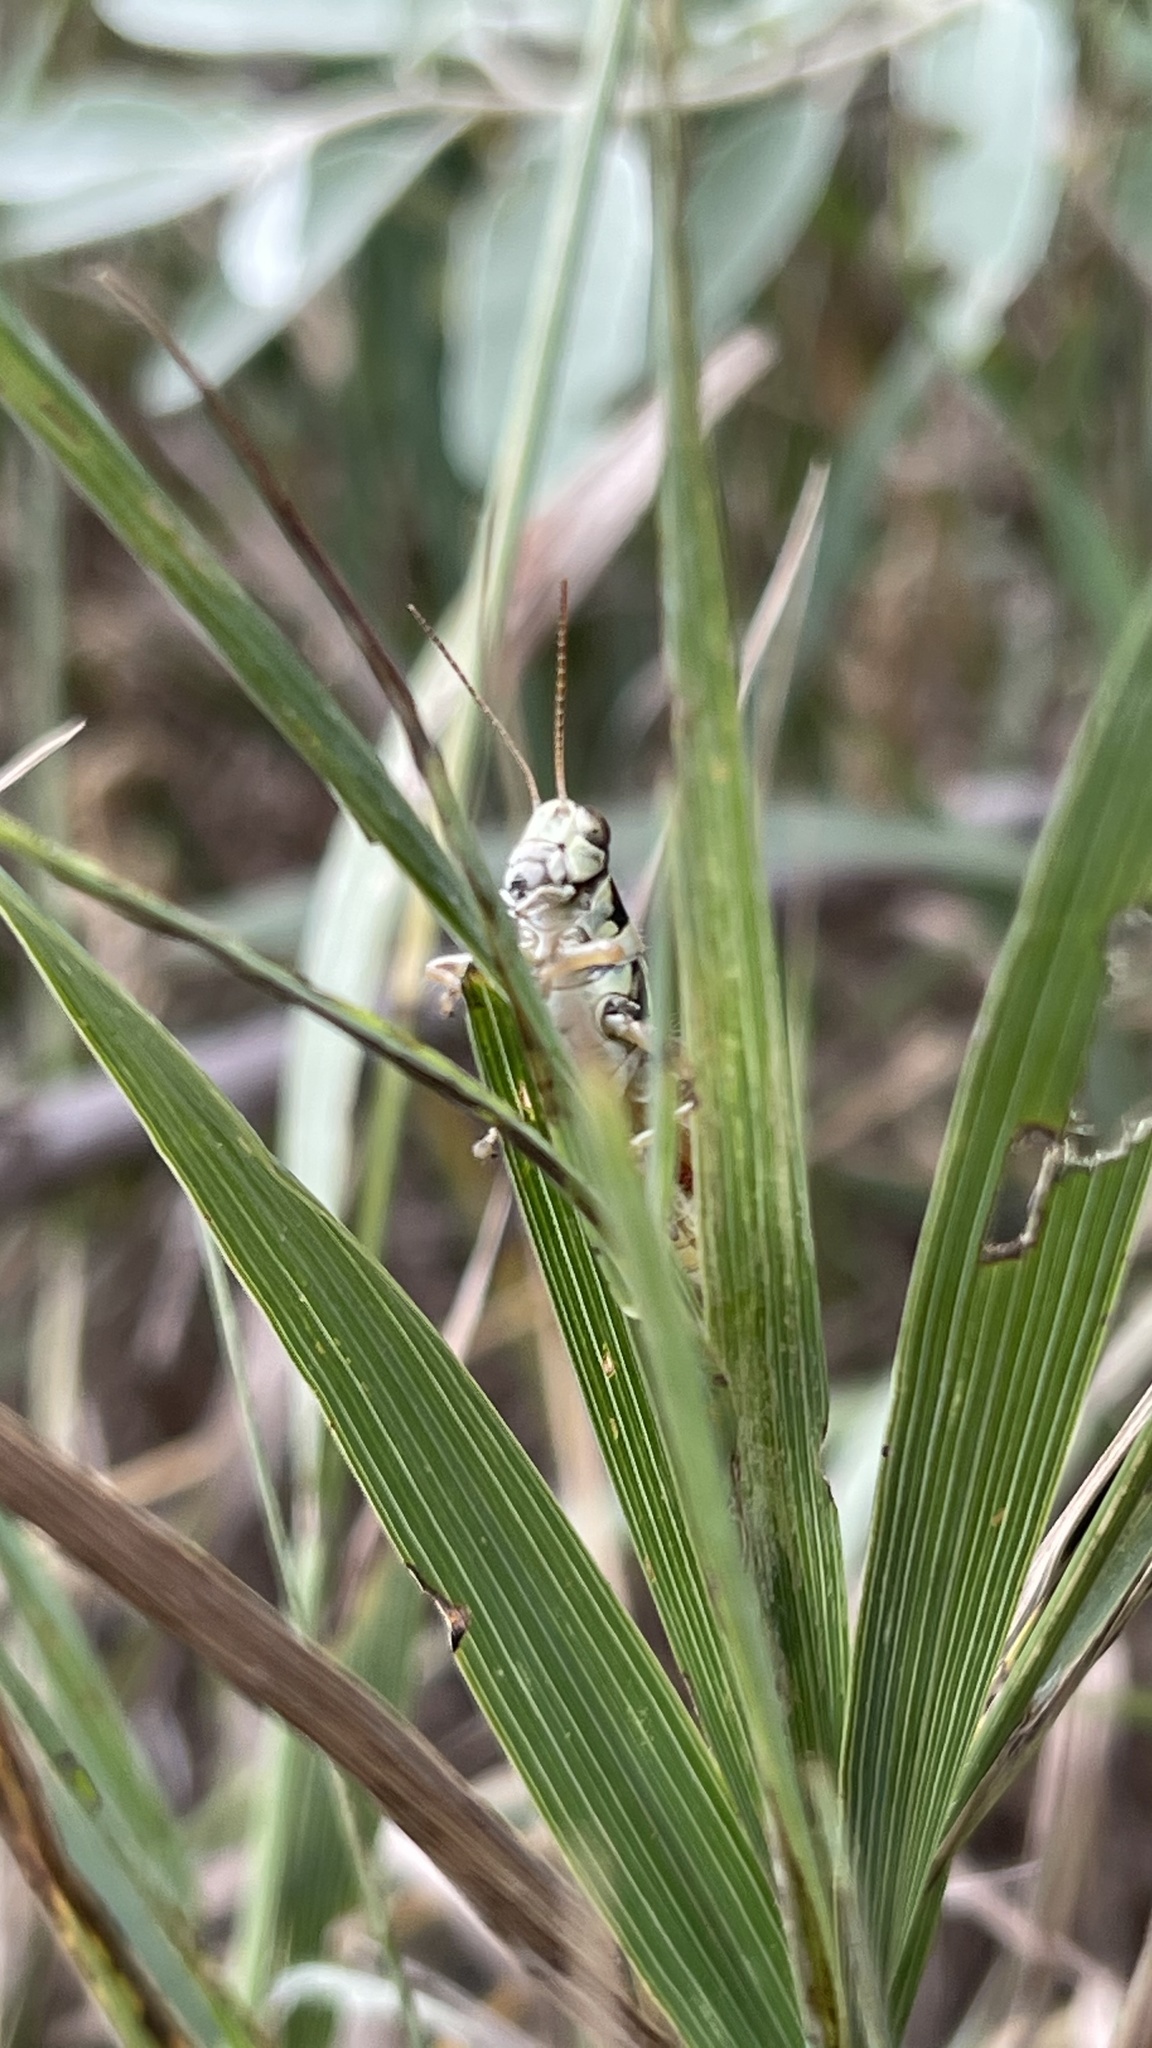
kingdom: Animalia
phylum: Arthropoda
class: Insecta
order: Orthoptera
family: Acrididae
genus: Melanoplus
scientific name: Melanoplus femurrubrum
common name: Red-legged grasshopper
